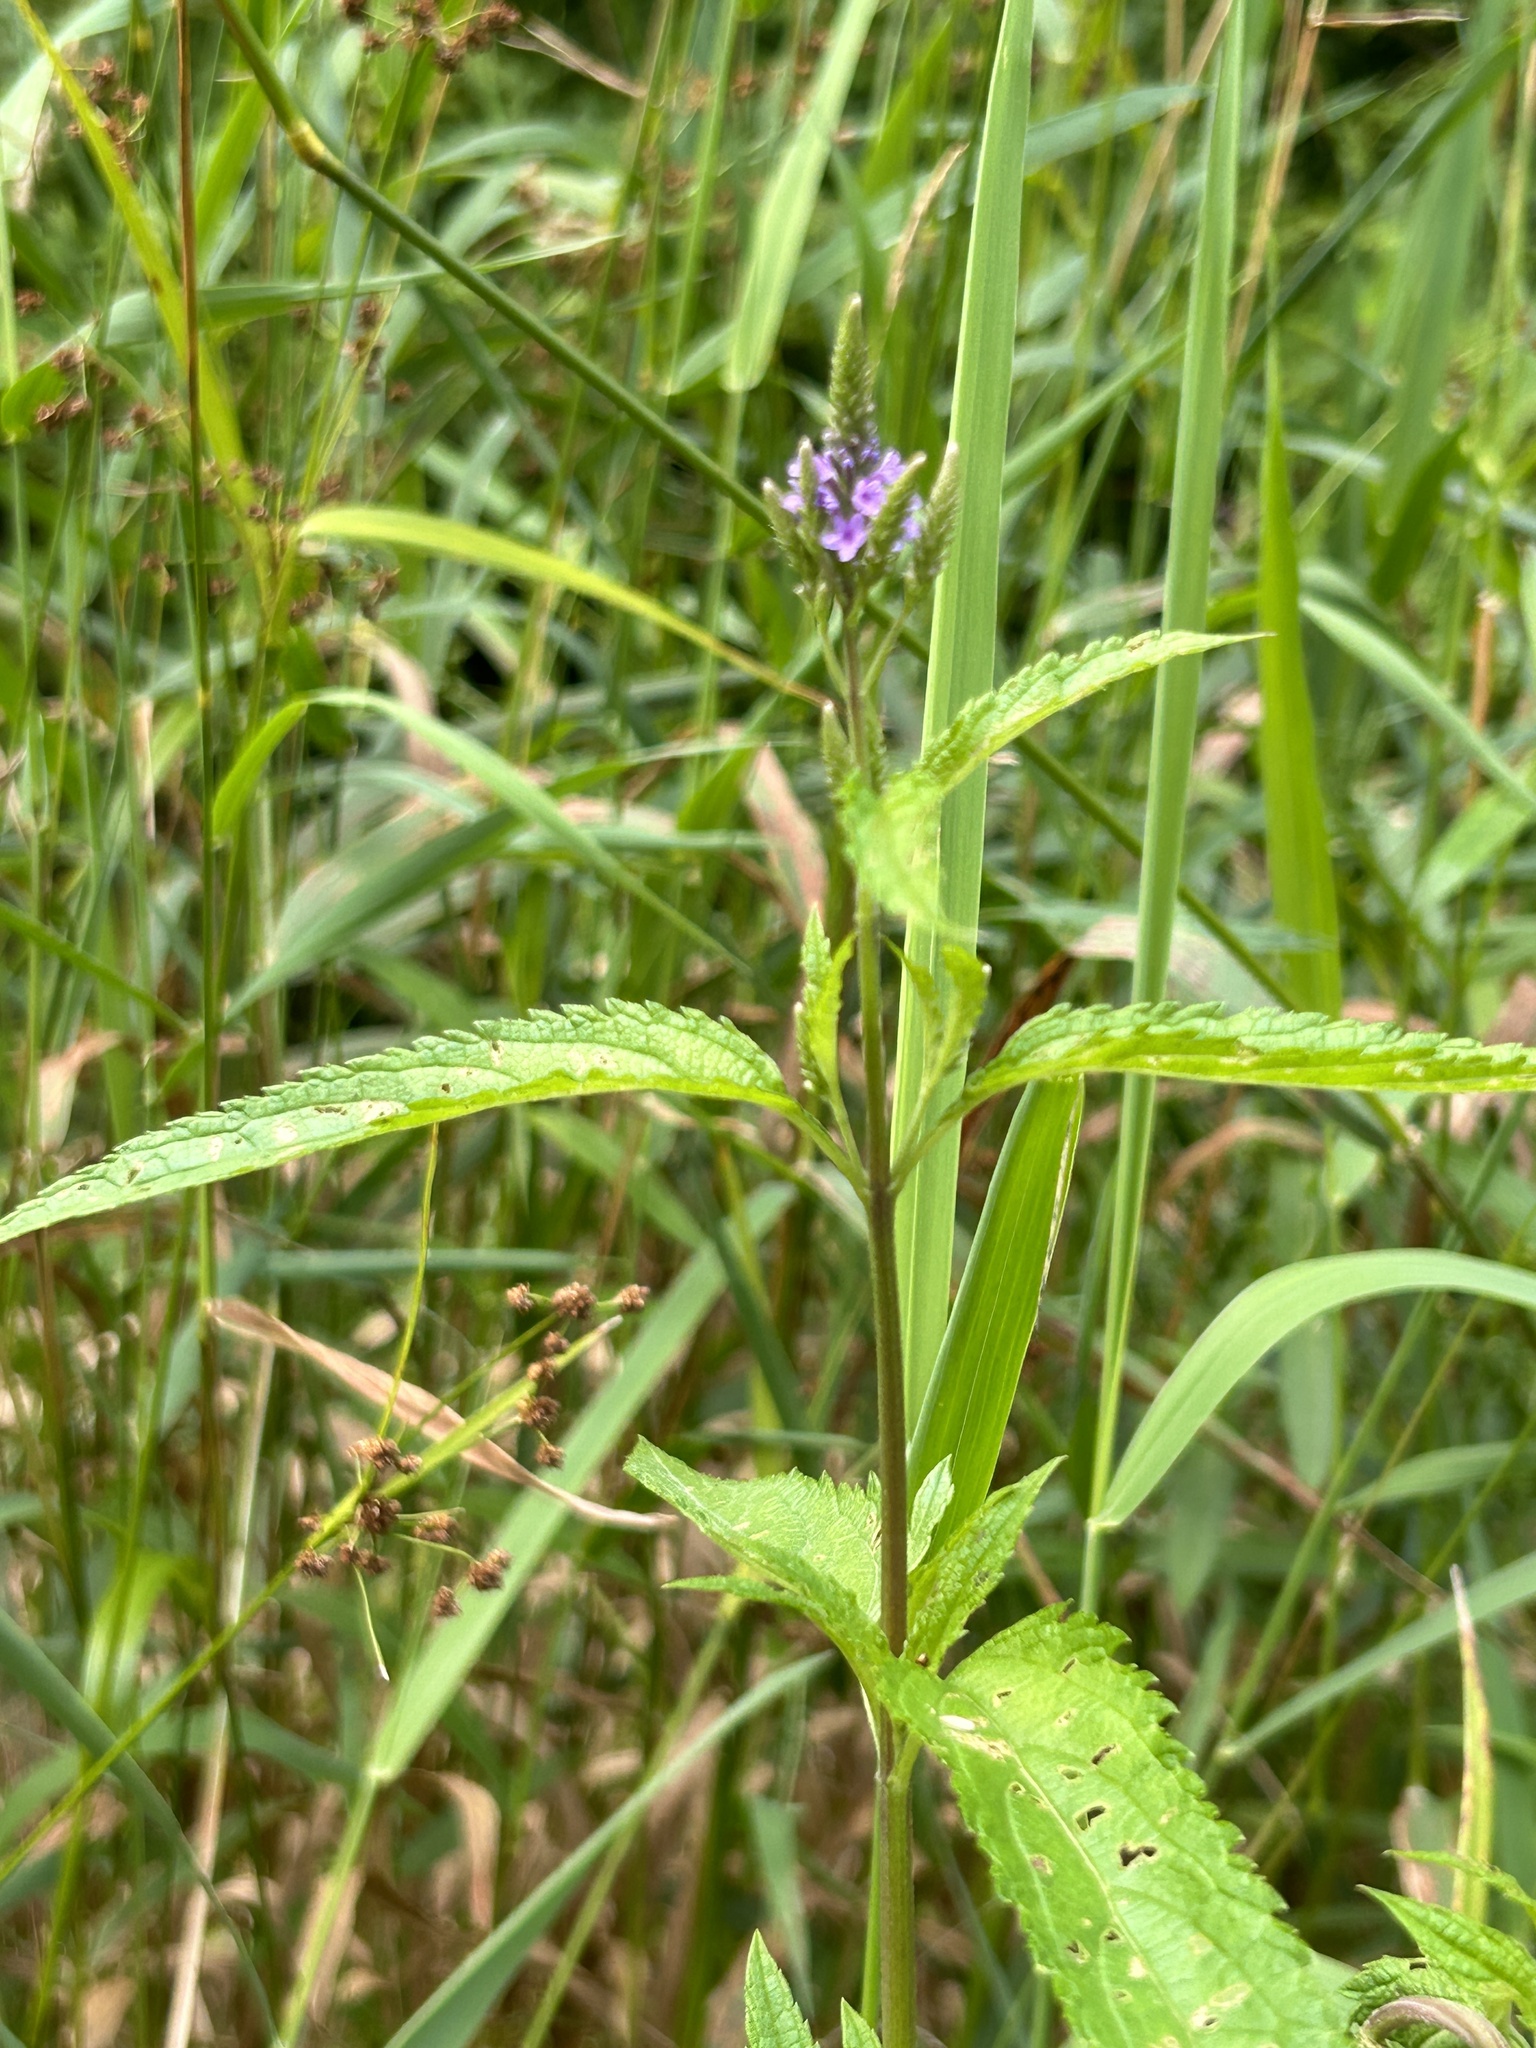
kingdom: Plantae
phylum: Tracheophyta
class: Magnoliopsida
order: Lamiales
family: Verbenaceae
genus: Verbena
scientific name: Verbena hastata
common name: American blue vervain
